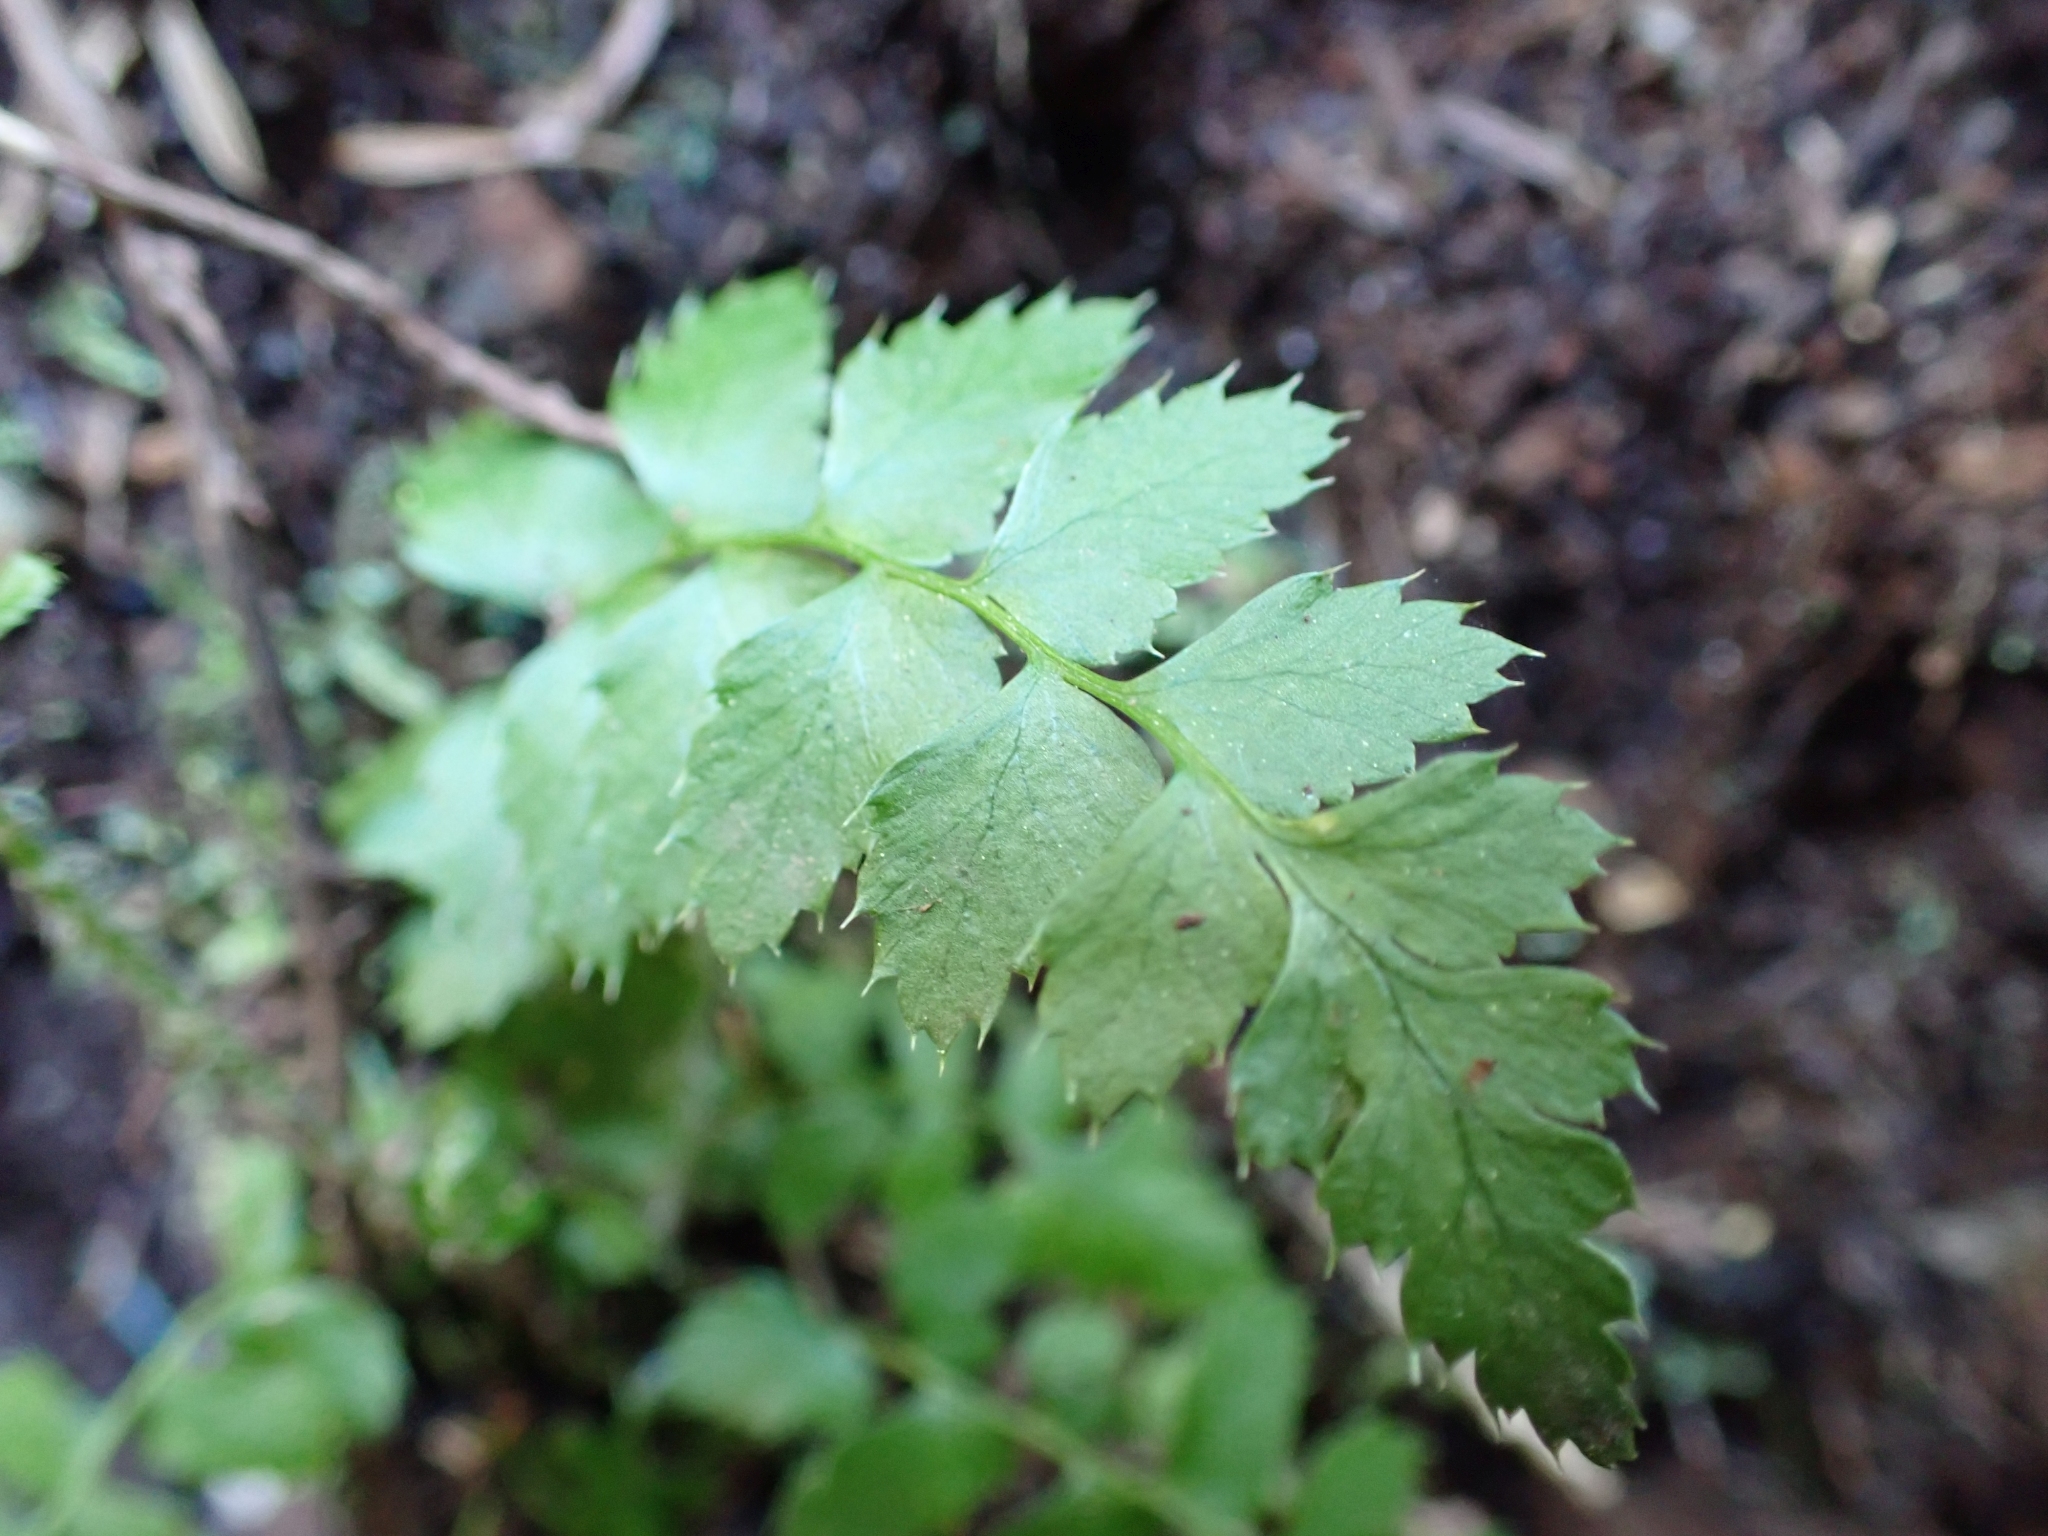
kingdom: Plantae
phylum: Tracheophyta
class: Polypodiopsida
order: Polypodiales
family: Dryopteridaceae
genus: Polystichum
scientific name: Polystichum munitum
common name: Western sword-fern
